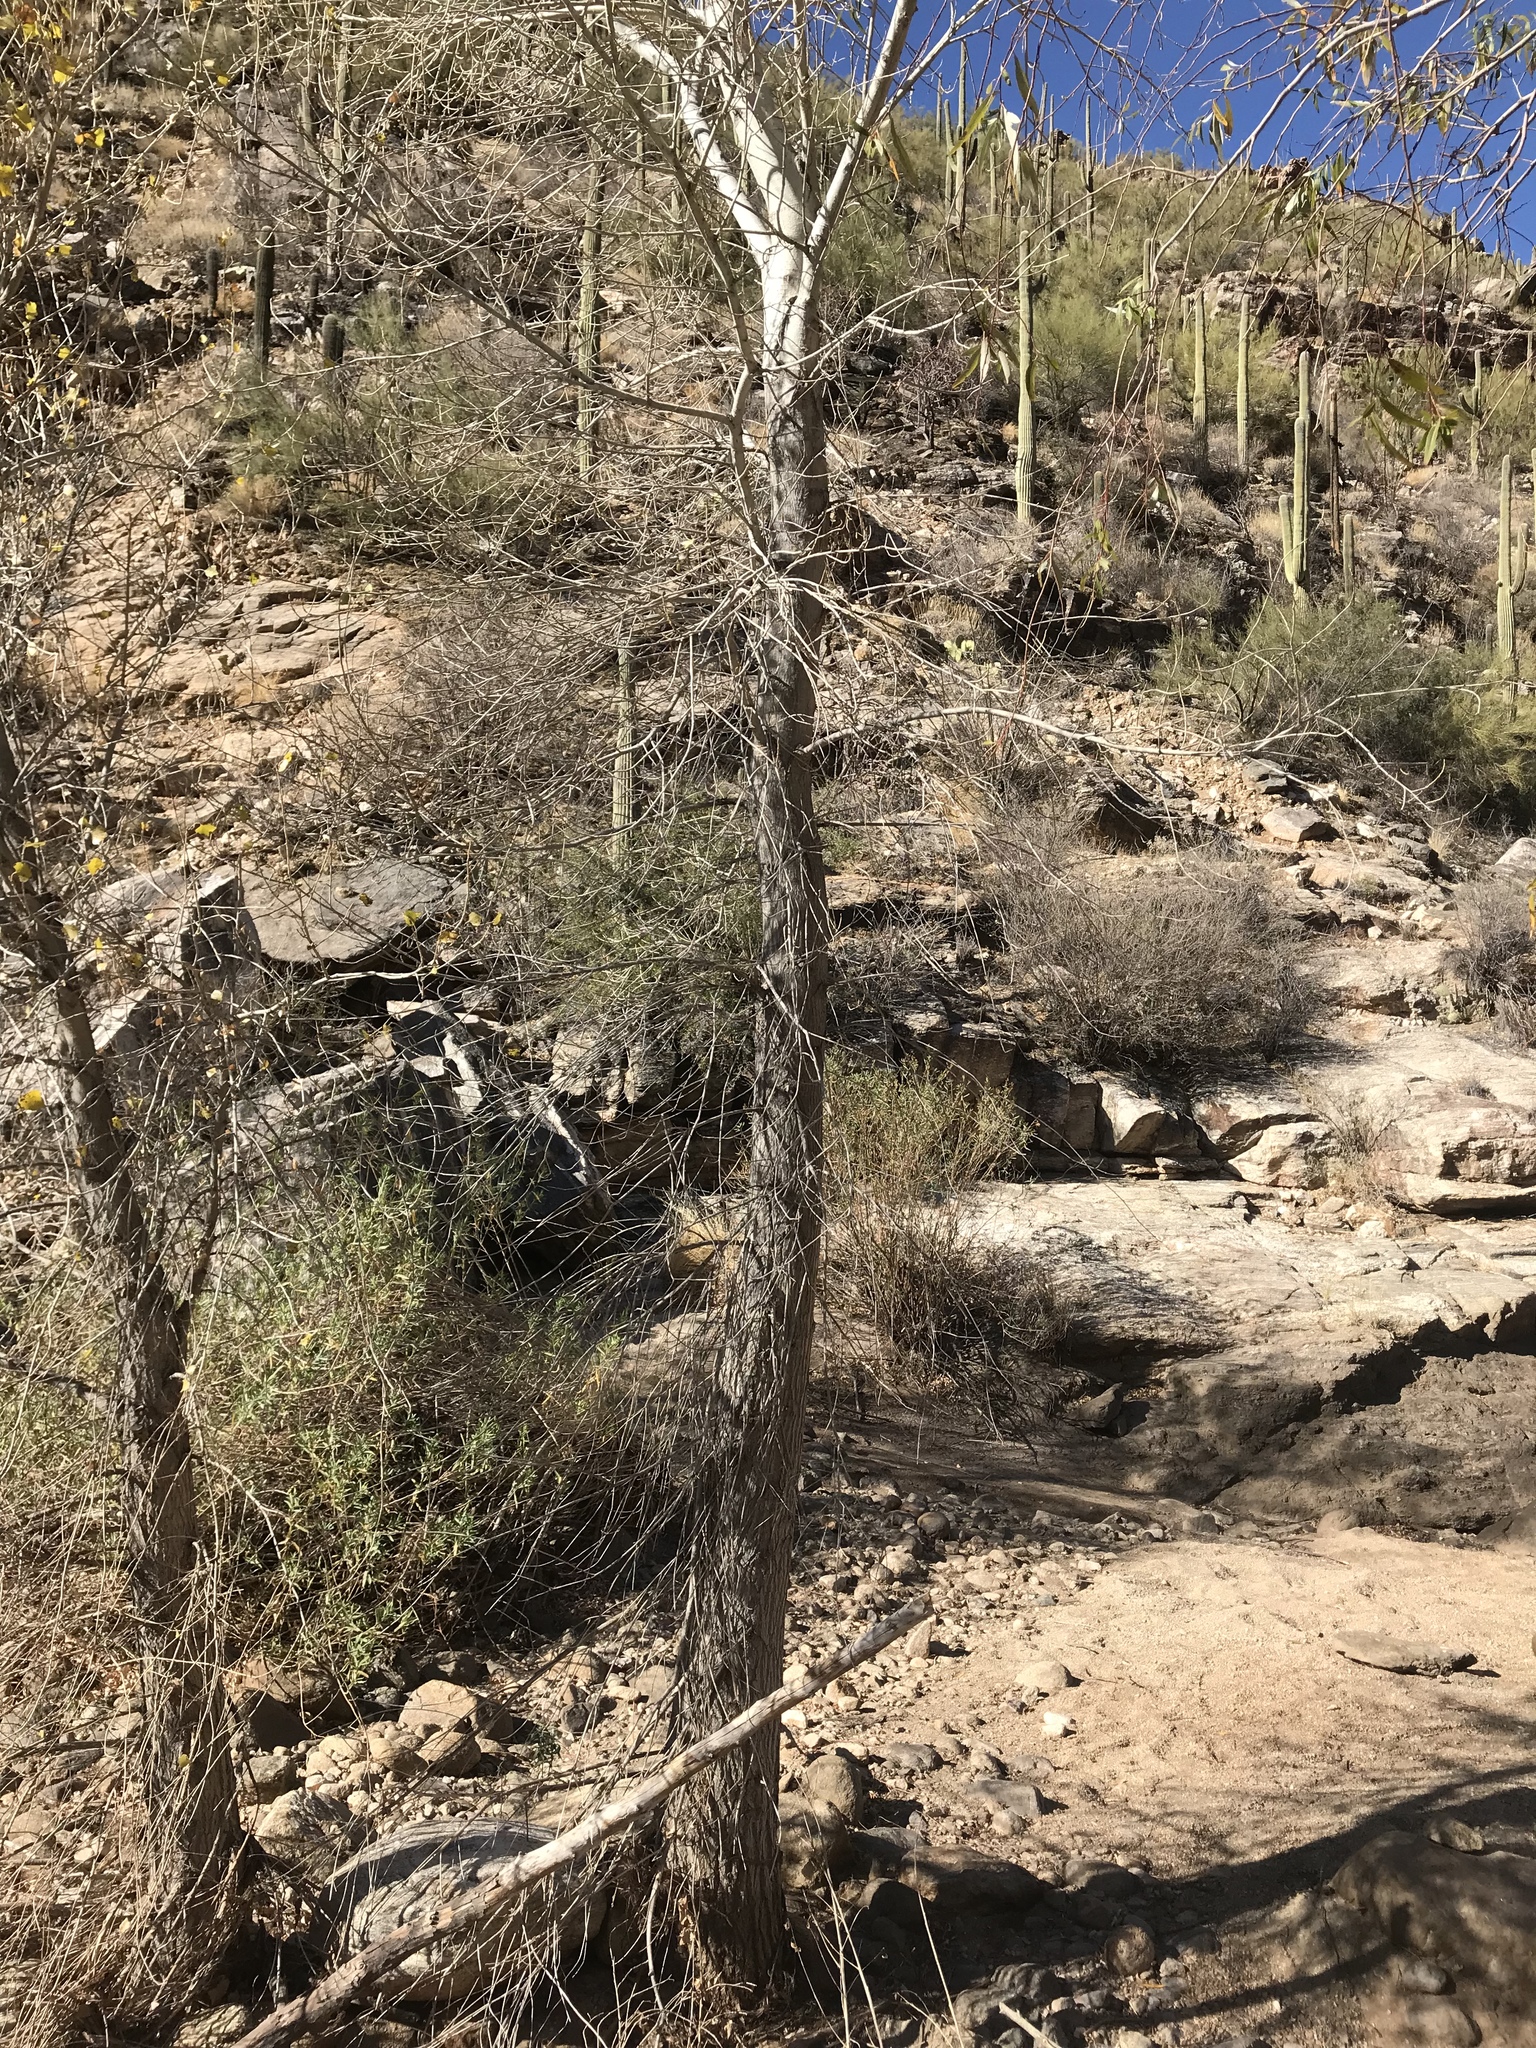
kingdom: Plantae
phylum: Tracheophyta
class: Magnoliopsida
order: Proteales
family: Platanaceae
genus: Platanus
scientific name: Platanus wrightii
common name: Arizona sycamore
